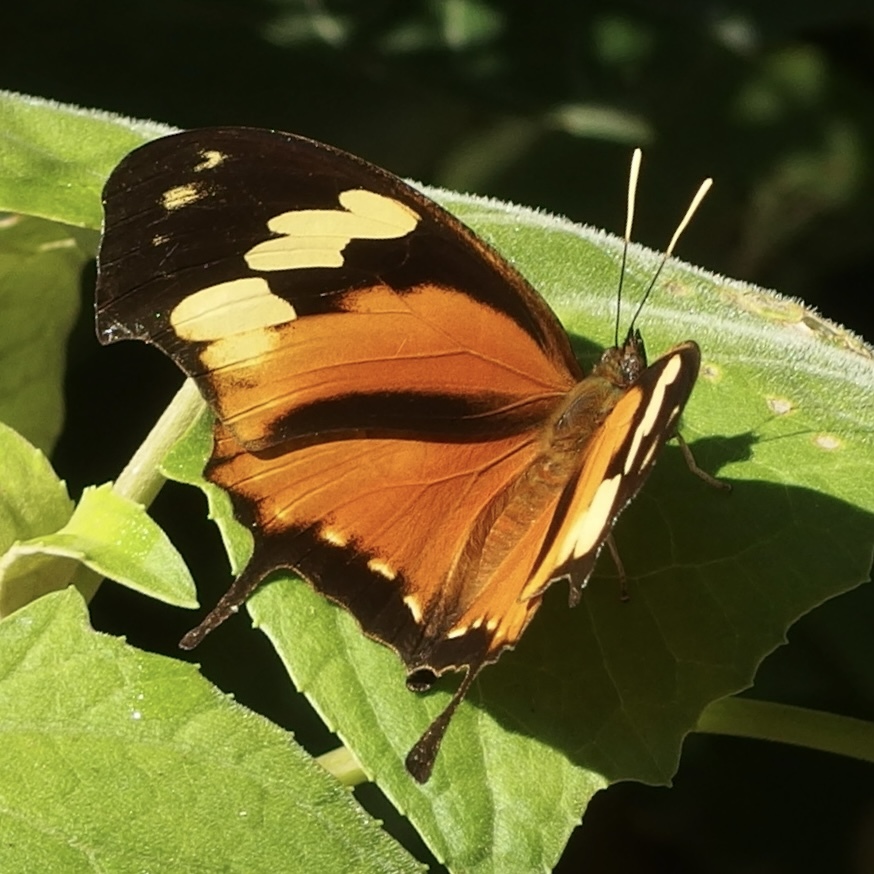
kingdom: Animalia
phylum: Arthropoda
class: Insecta
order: Lepidoptera
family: Nymphalidae
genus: Consul
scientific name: Consul fabius
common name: Tiger leafwing
